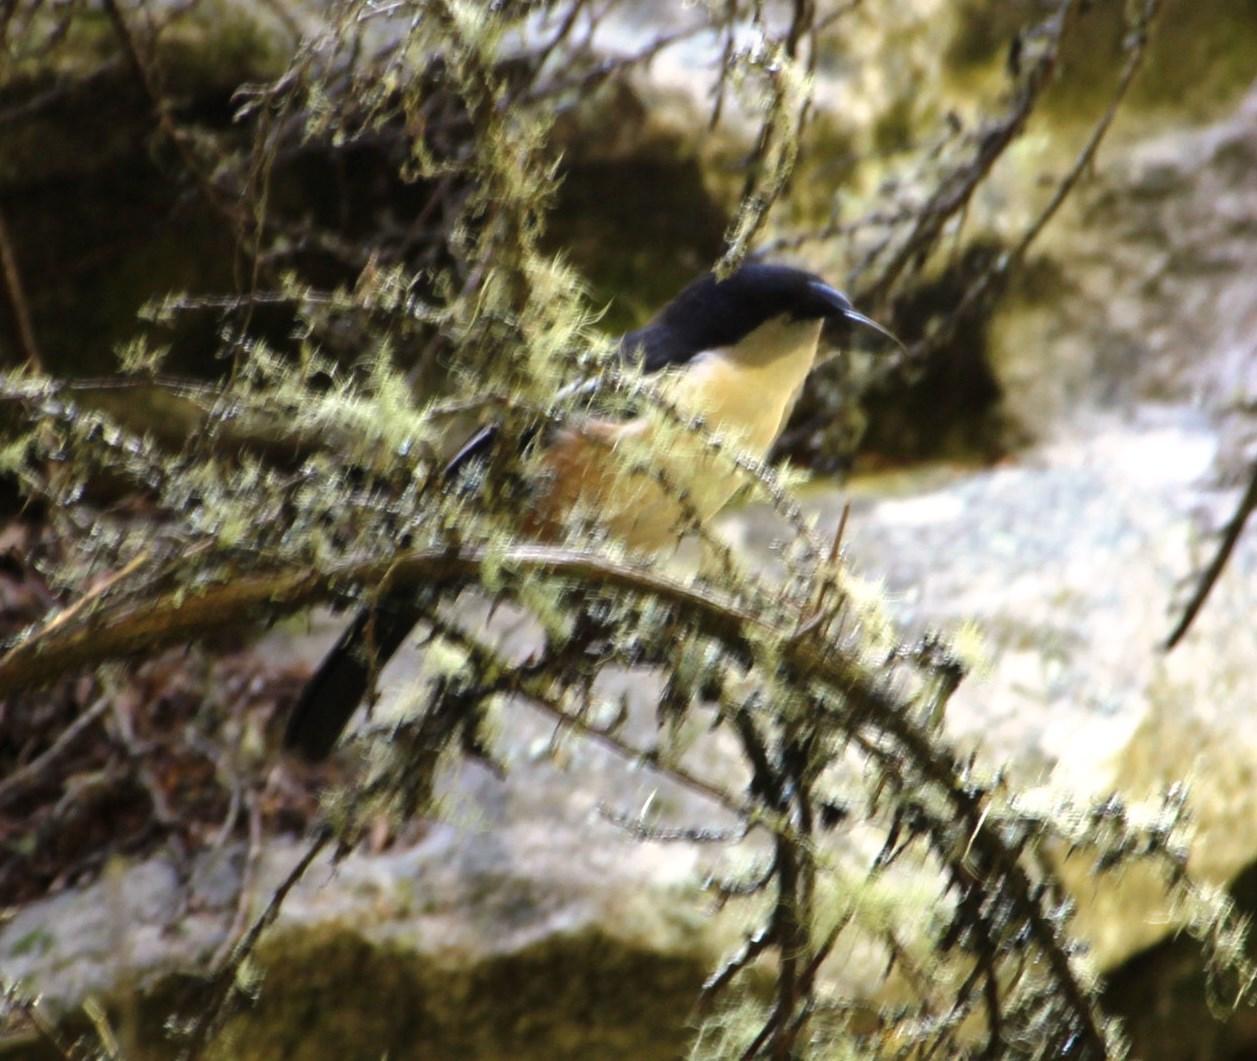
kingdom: Animalia
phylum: Chordata
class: Aves
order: Passeriformes
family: Malaconotidae
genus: Laniarius
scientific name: Laniarius ferrugineus
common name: Southern boubou
